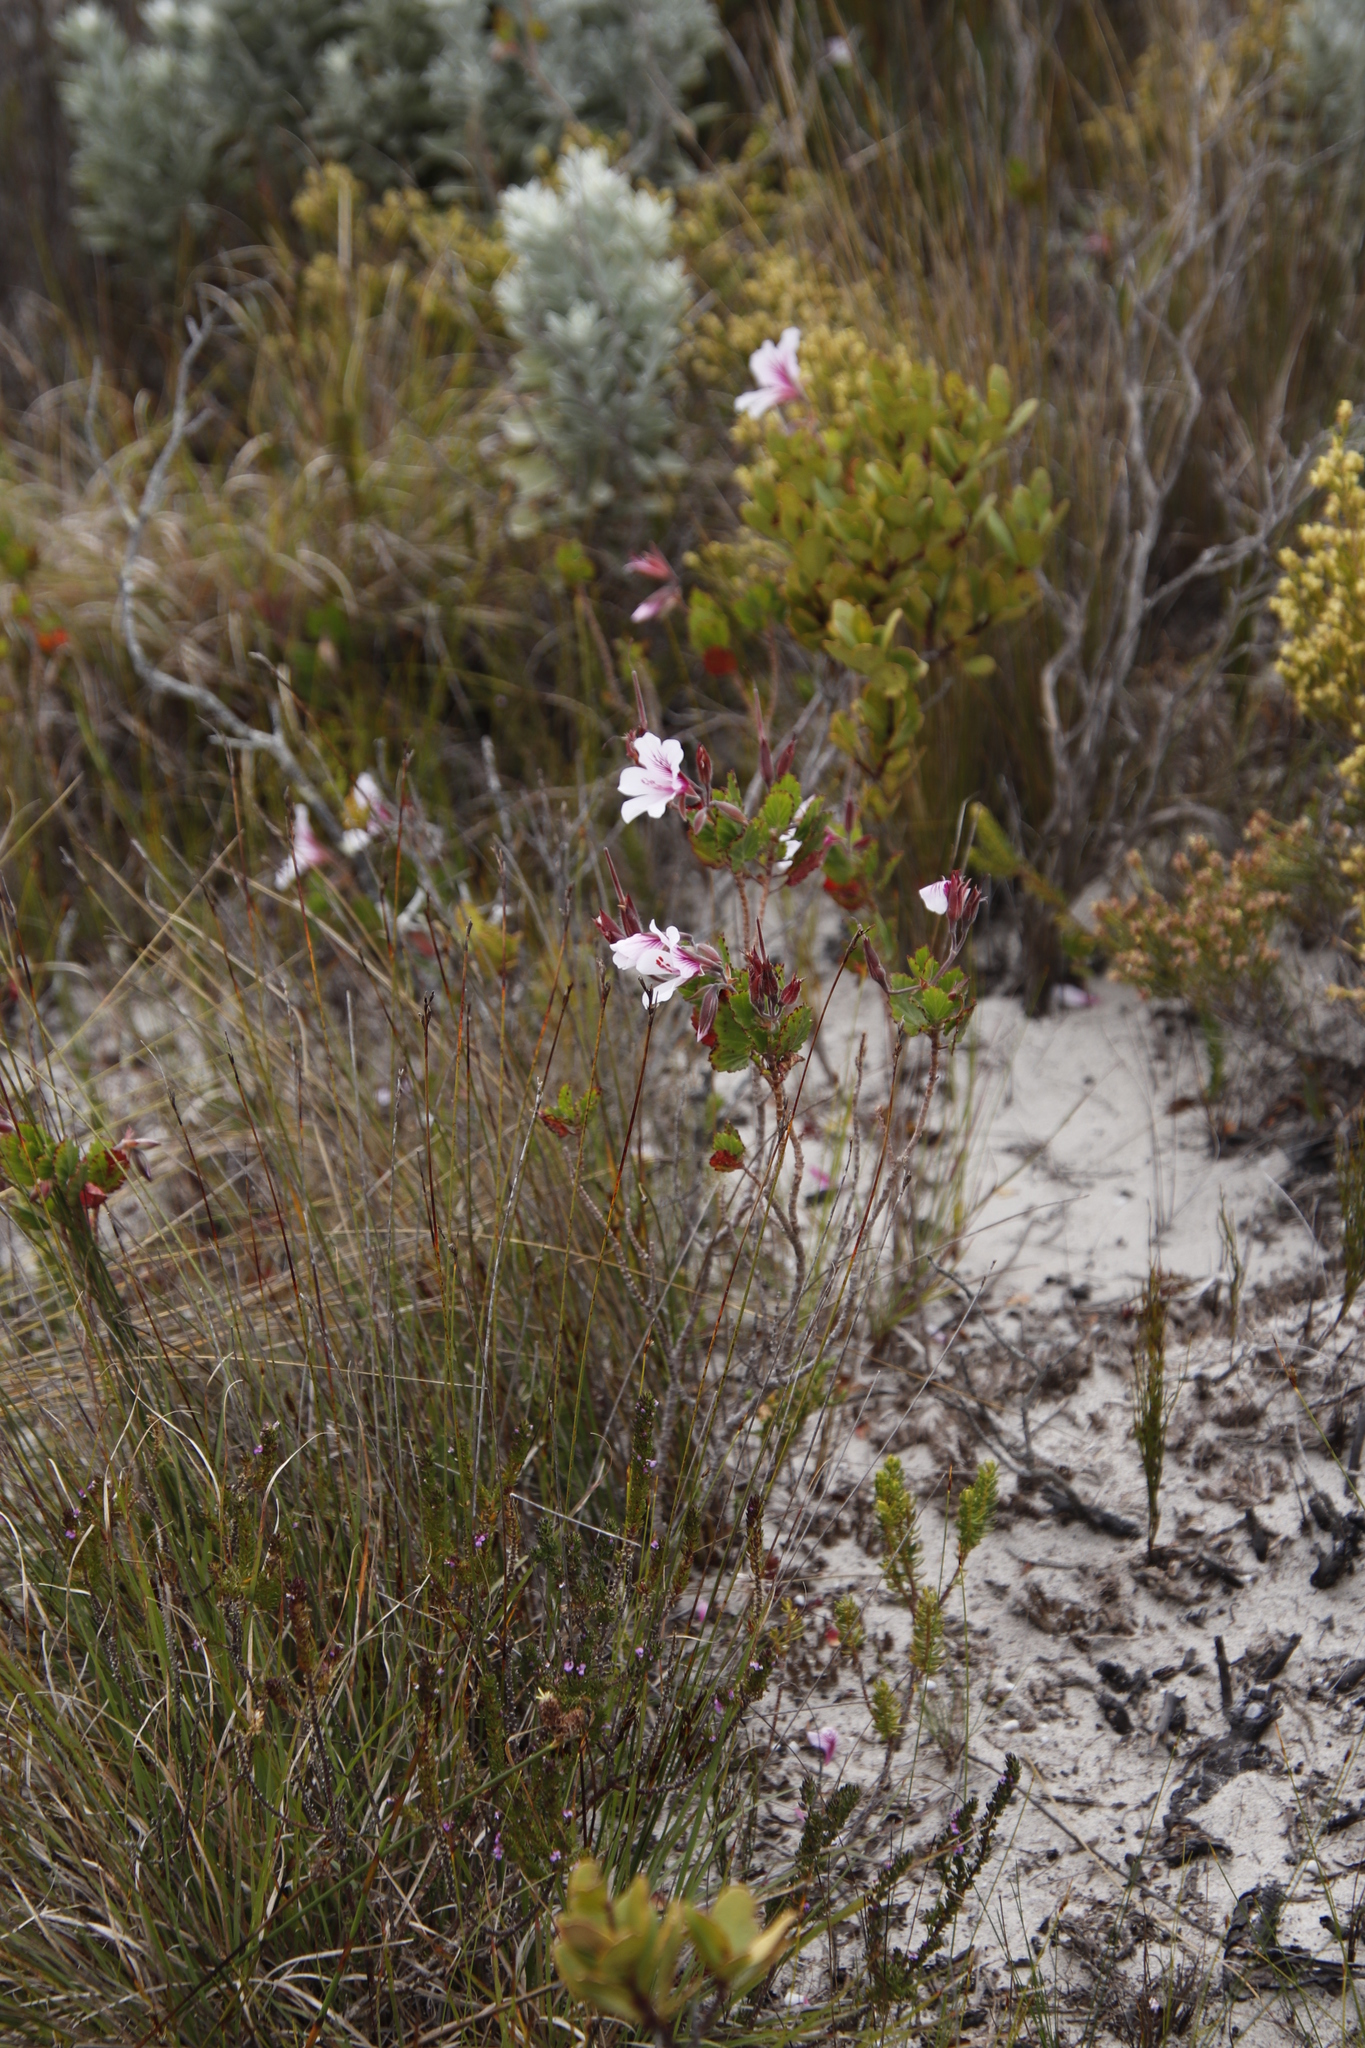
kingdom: Plantae
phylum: Tracheophyta
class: Magnoliopsida
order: Geraniales
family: Geraniaceae
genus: Pelargonium
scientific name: Pelargonium betulinum
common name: Birch-leaf pelargonium
